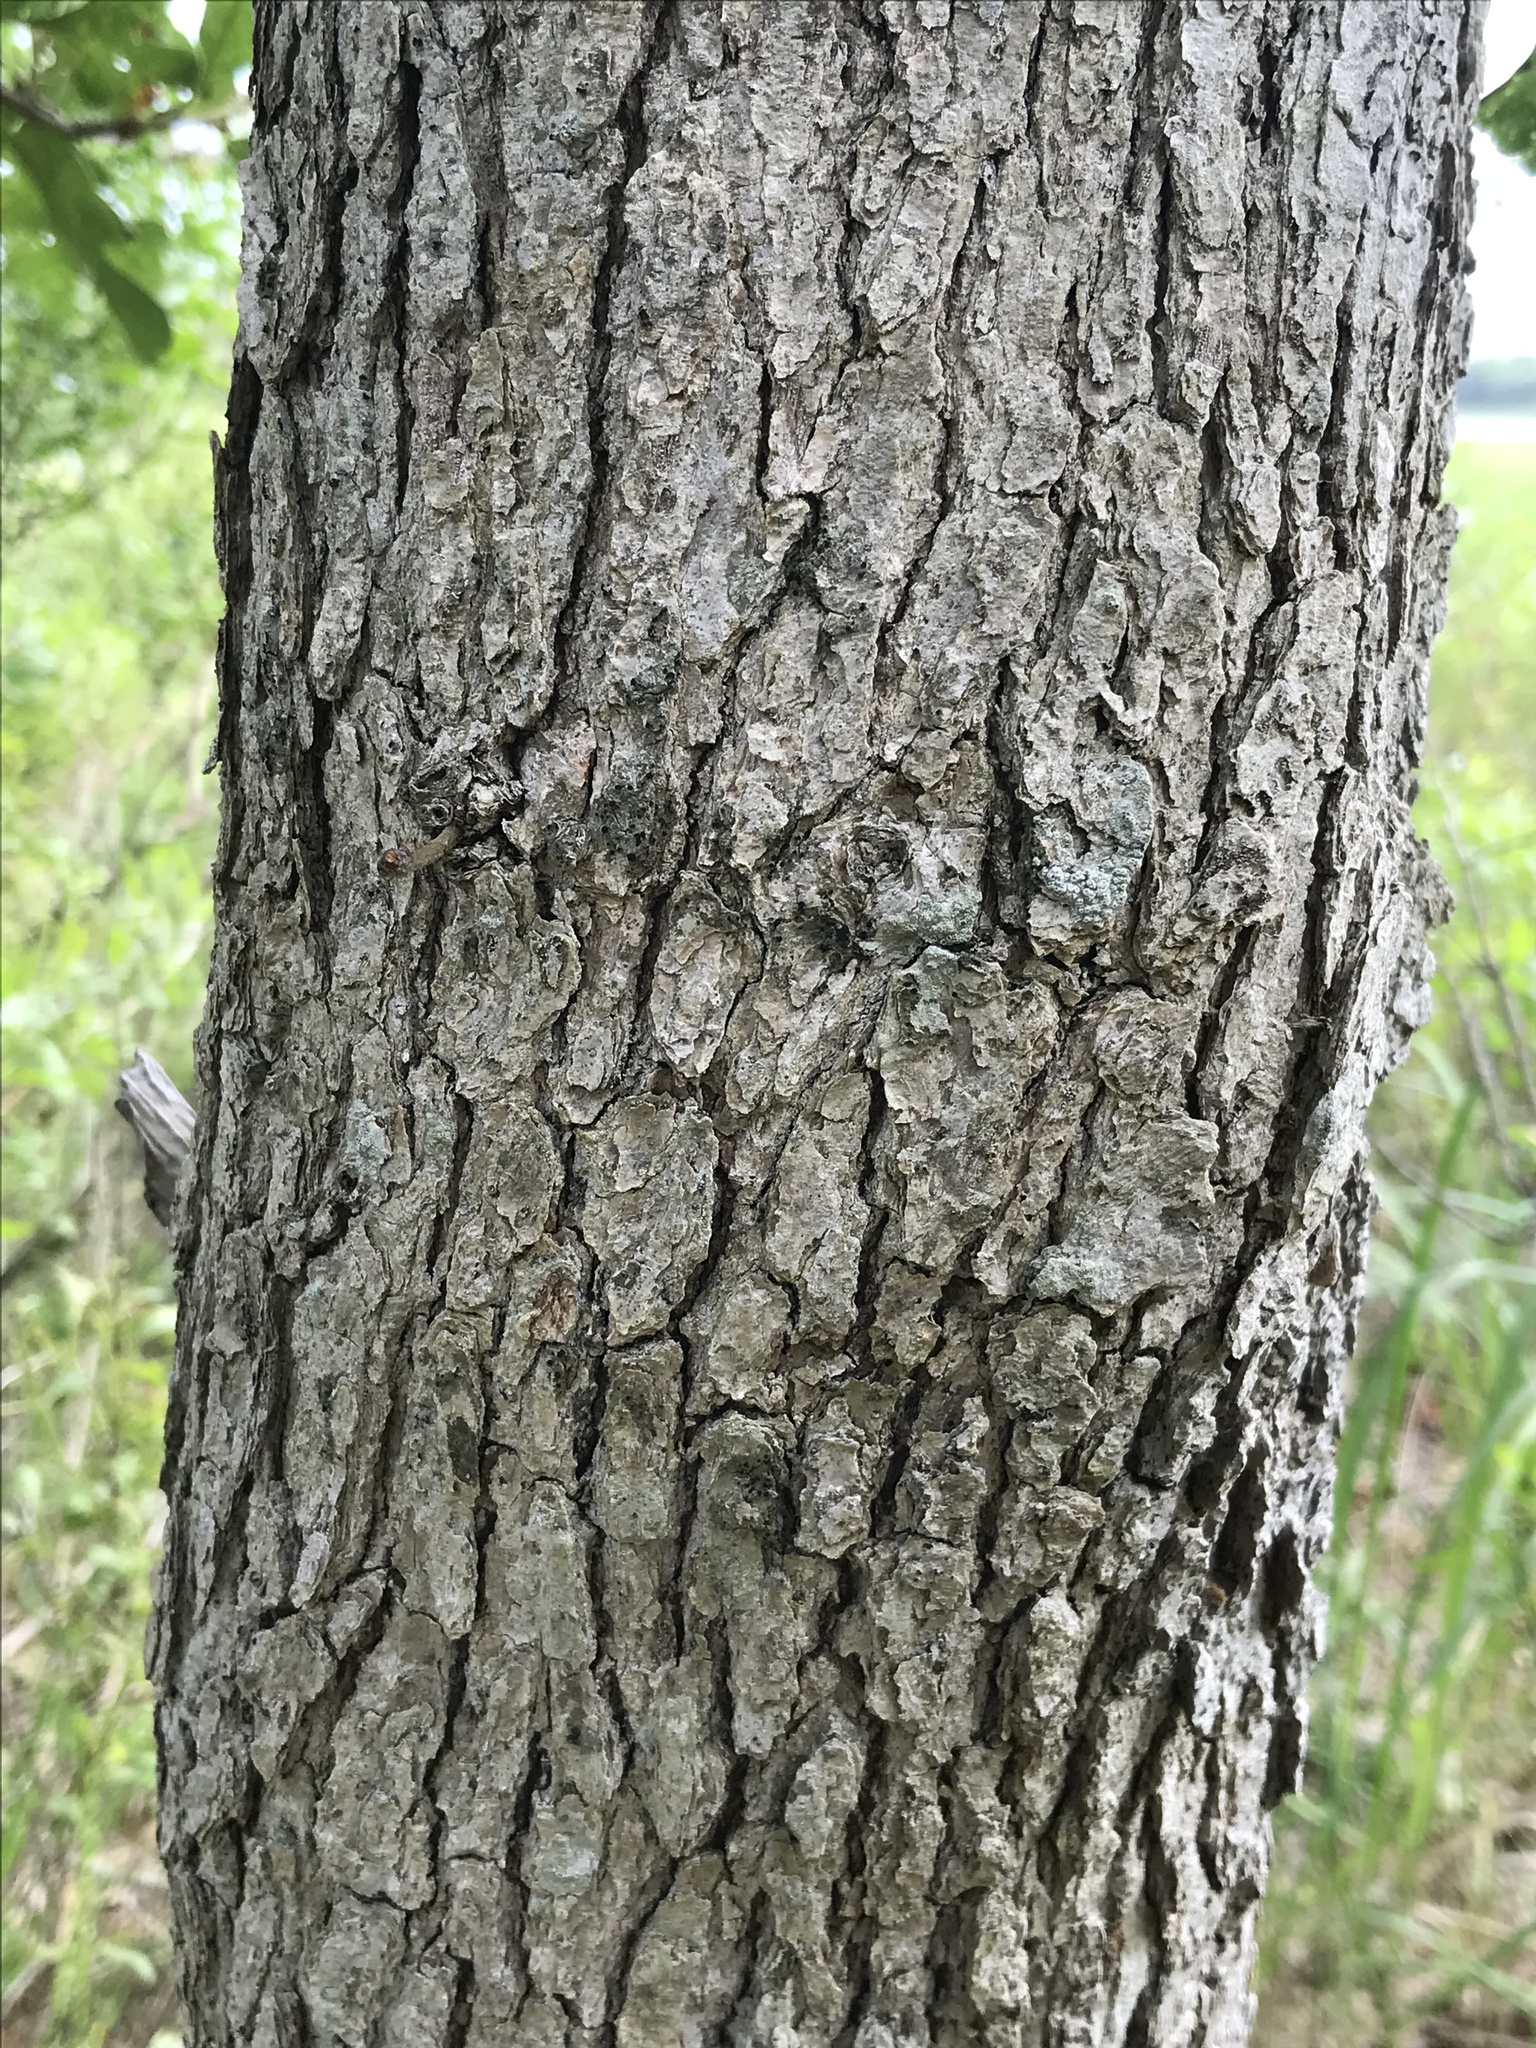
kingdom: Plantae
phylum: Tracheophyta
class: Magnoliopsida
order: Fagales
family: Fagaceae
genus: Quercus
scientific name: Quercus stellata
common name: Post oak
